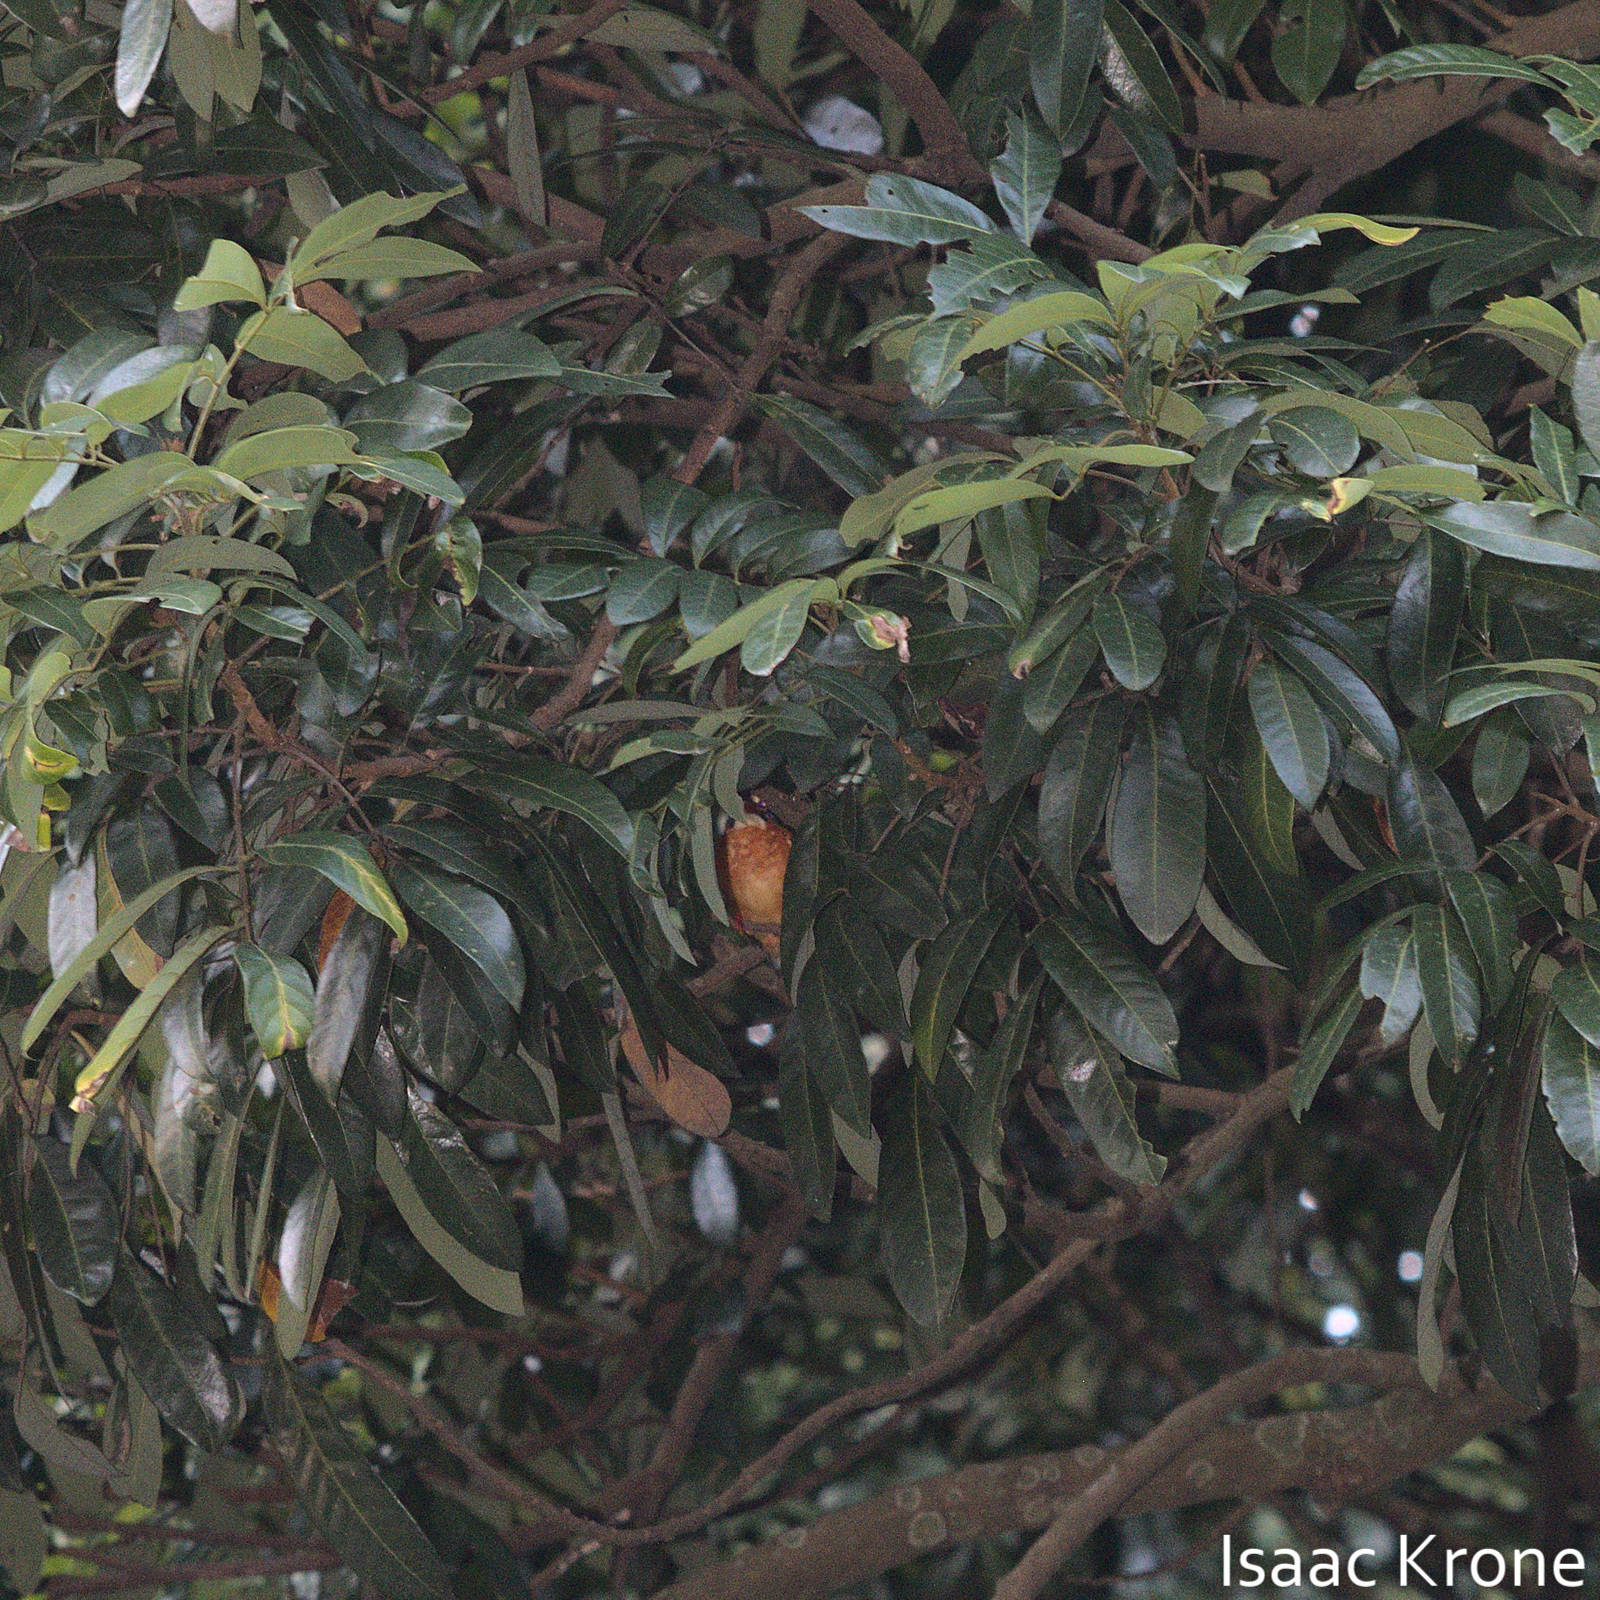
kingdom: Animalia
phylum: Chordata
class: Aves
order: Coraciiformes
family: Alcedinidae
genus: Alcedo
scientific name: Alcedo meninting
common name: Blue-eared kingfisher
